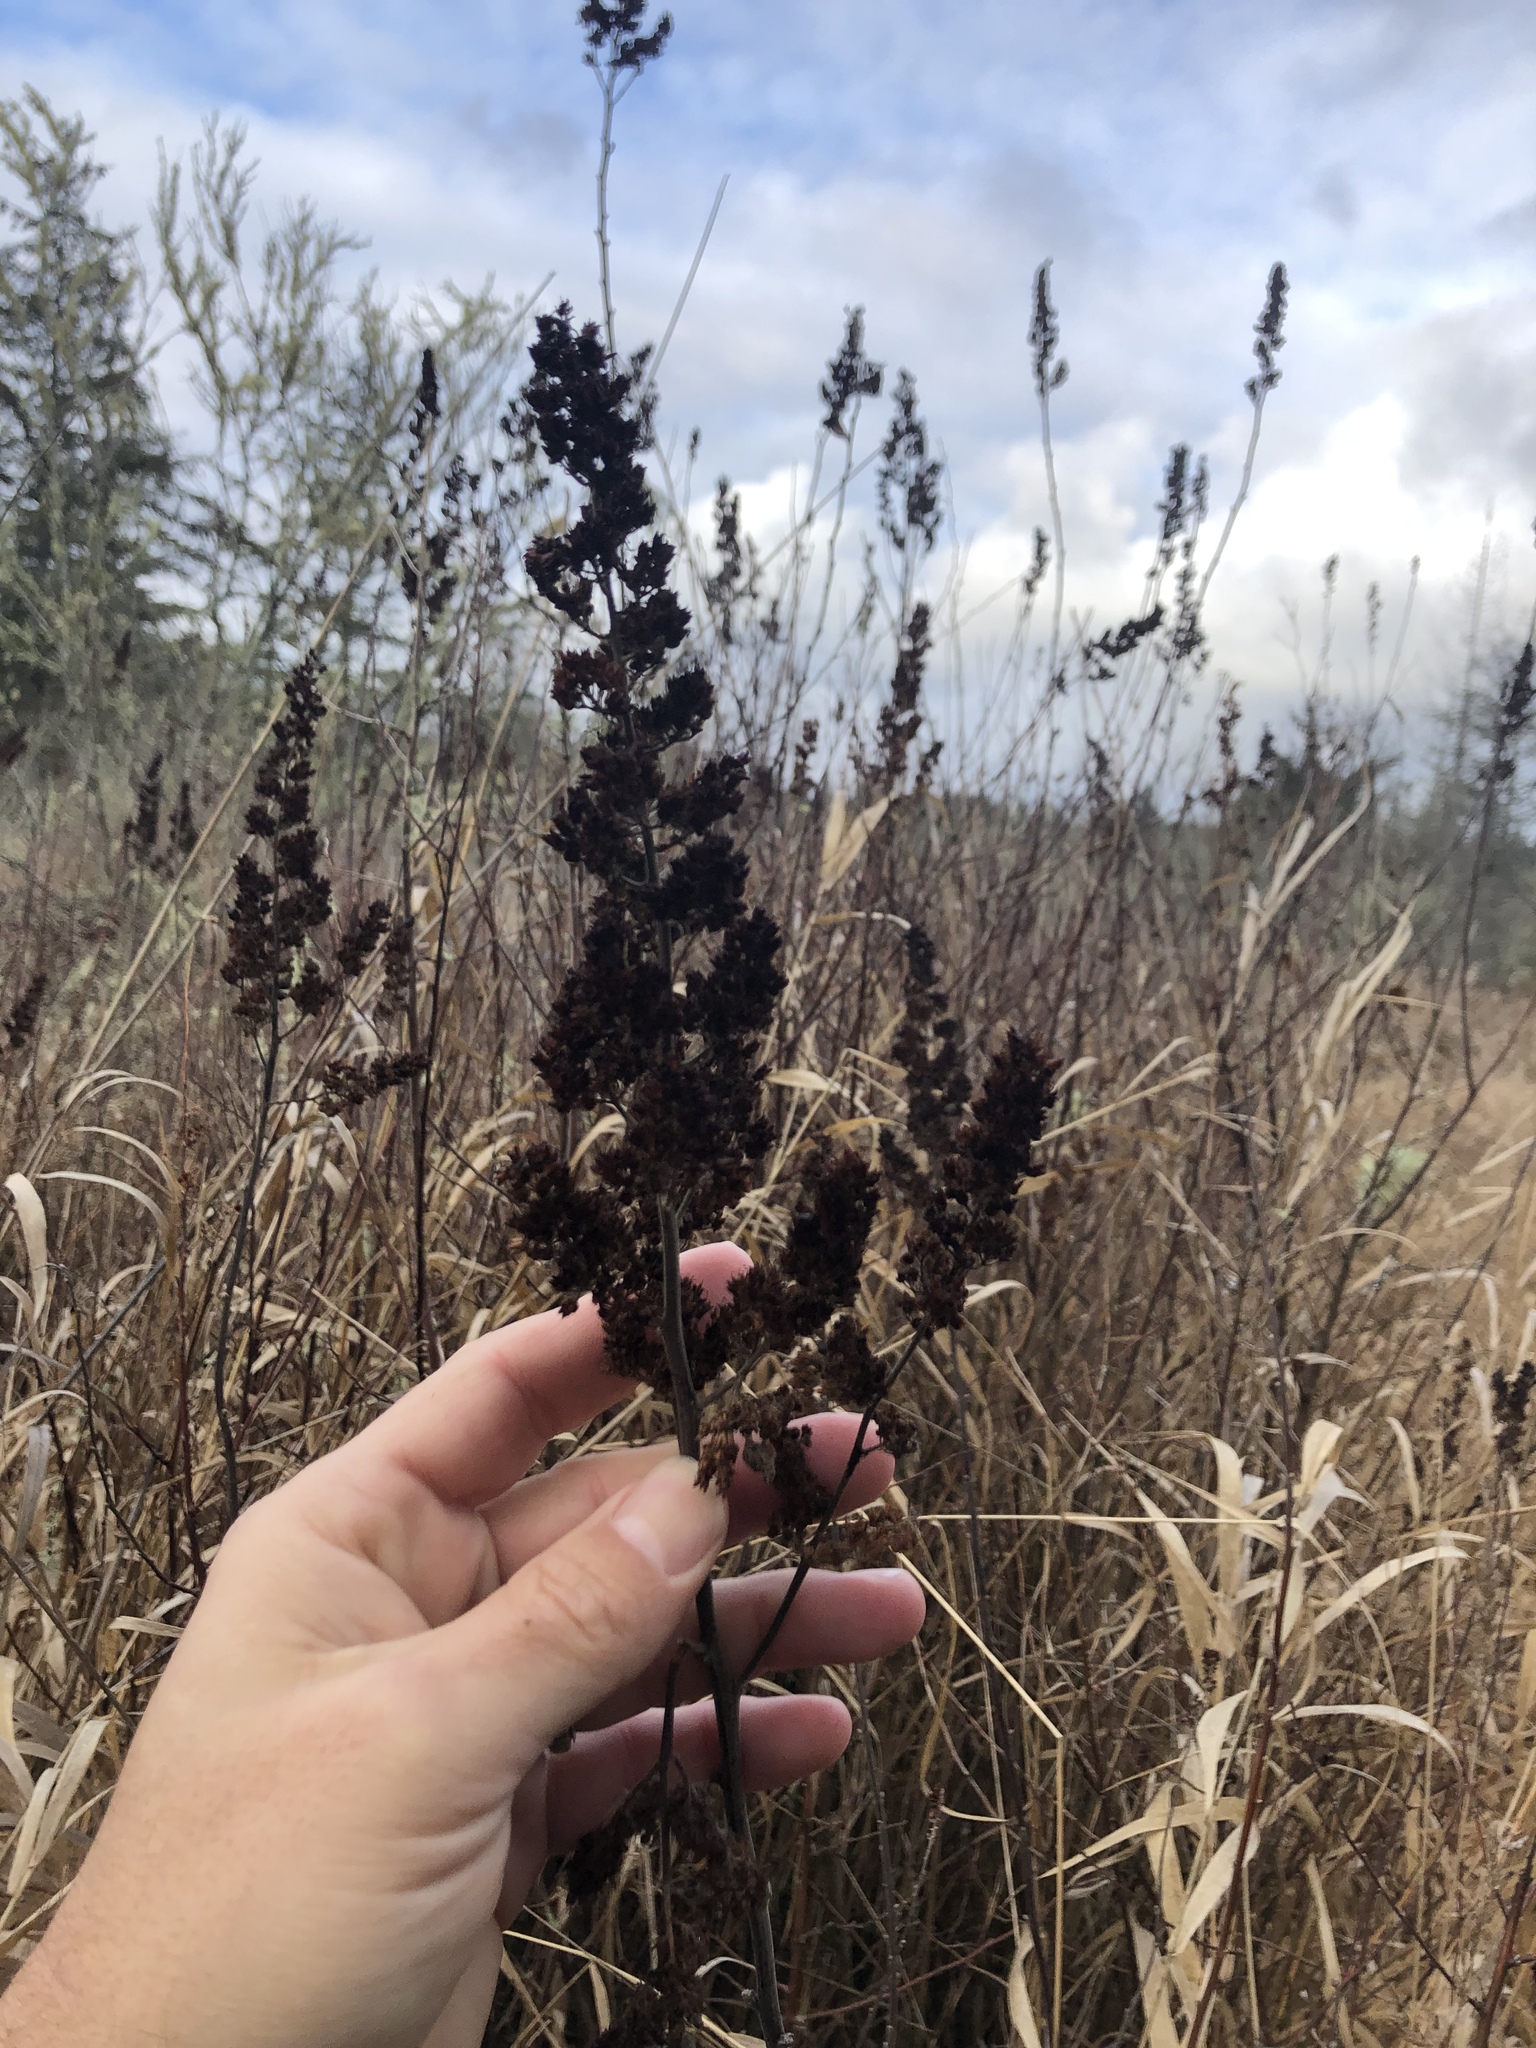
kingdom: Plantae
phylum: Tracheophyta
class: Magnoliopsida
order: Rosales
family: Rosaceae
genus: Spiraea
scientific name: Spiraea douglasii
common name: Steeplebush
